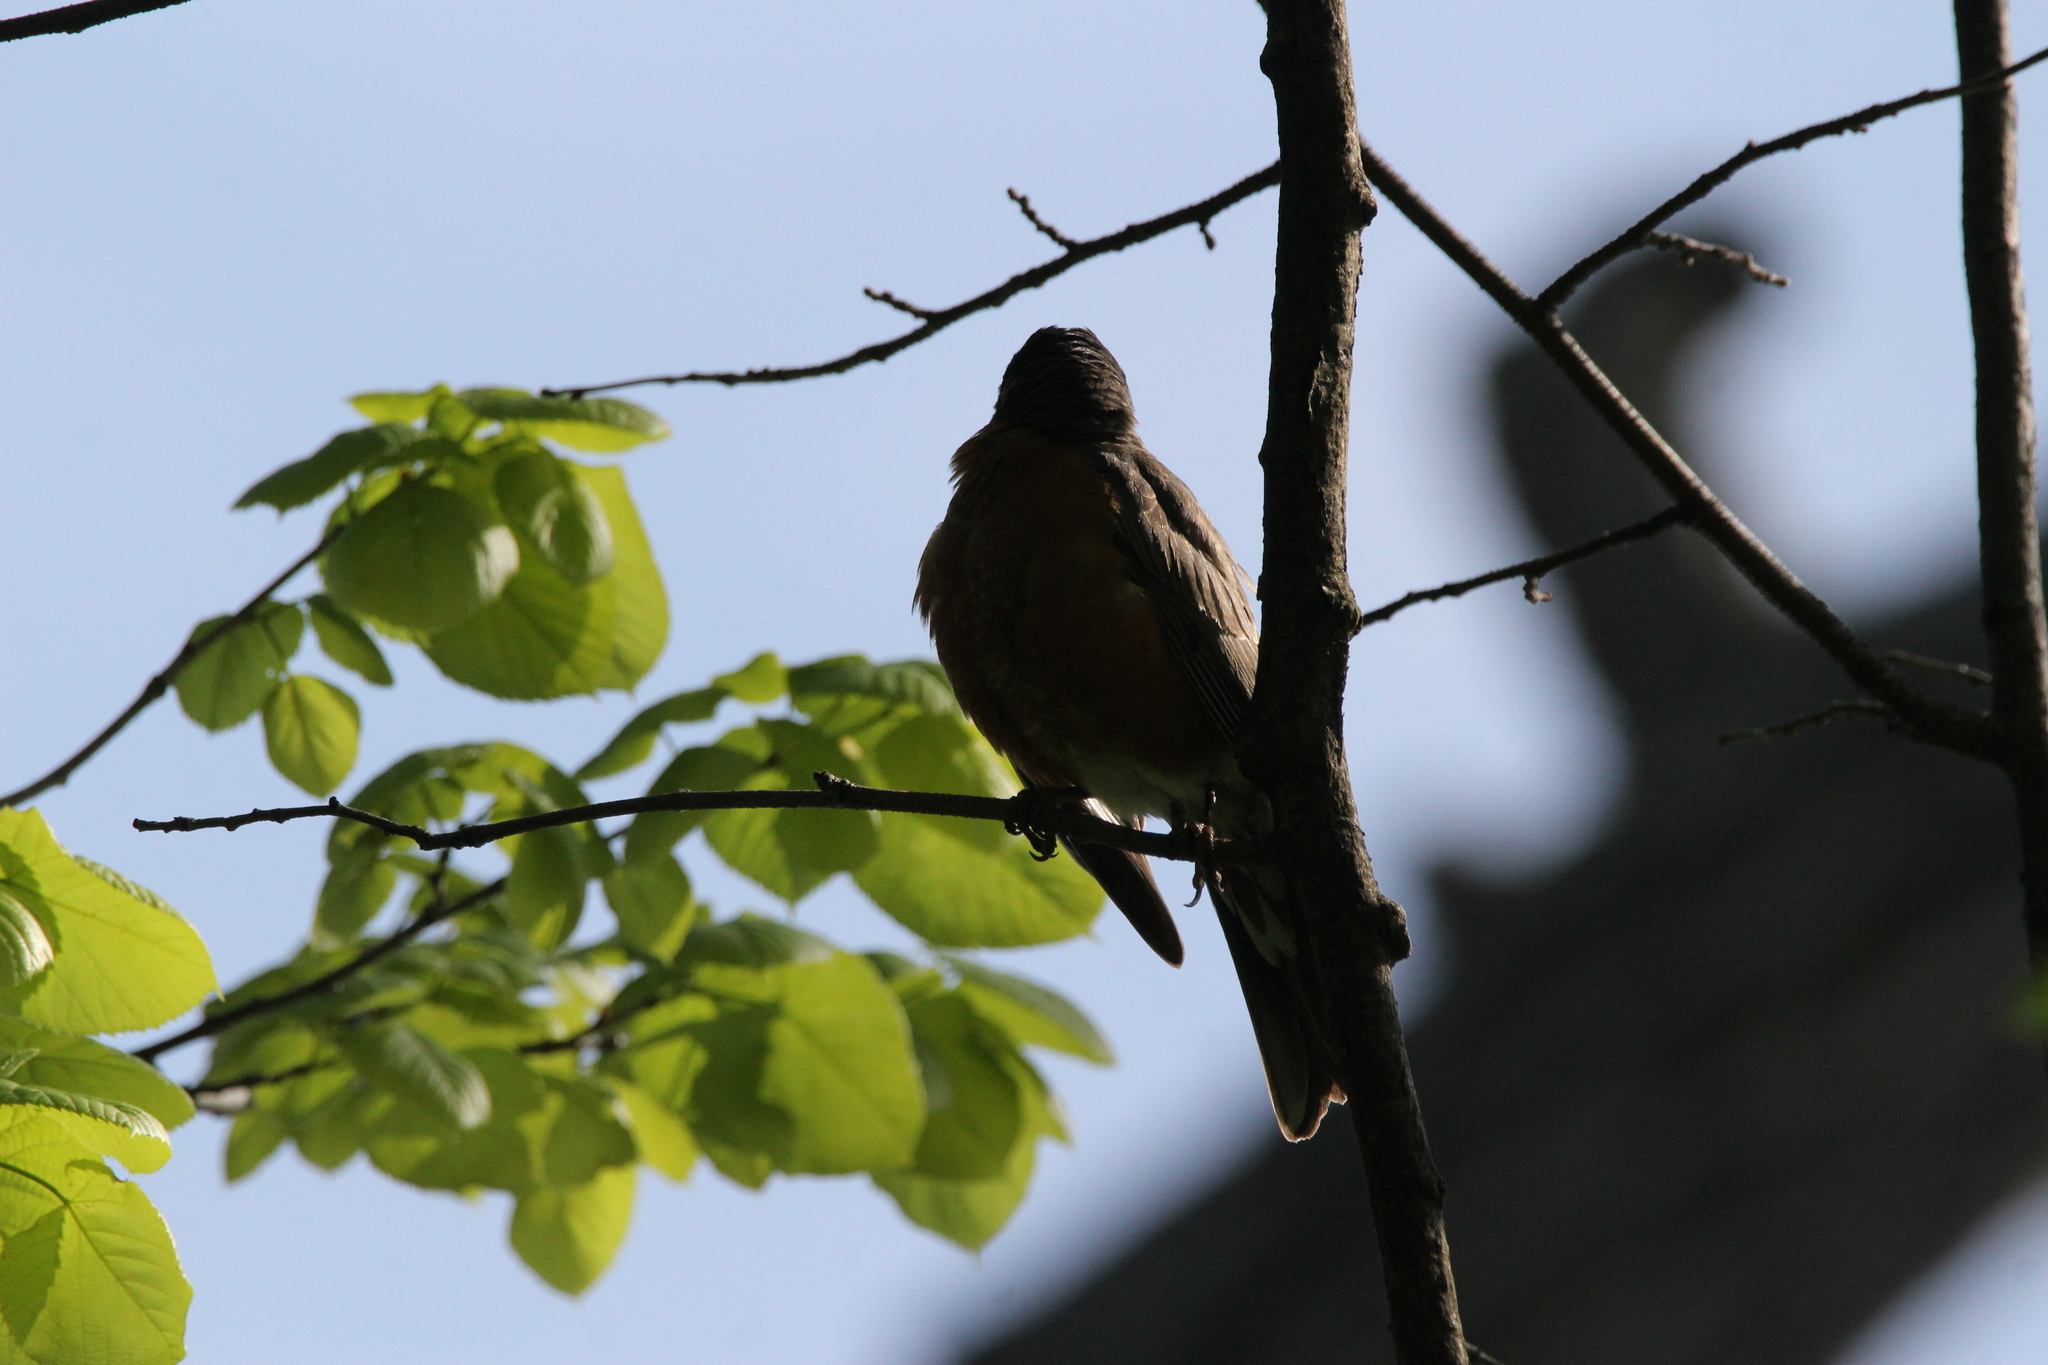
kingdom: Animalia
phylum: Chordata
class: Aves
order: Passeriformes
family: Turdidae
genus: Turdus
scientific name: Turdus migratorius
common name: American robin
